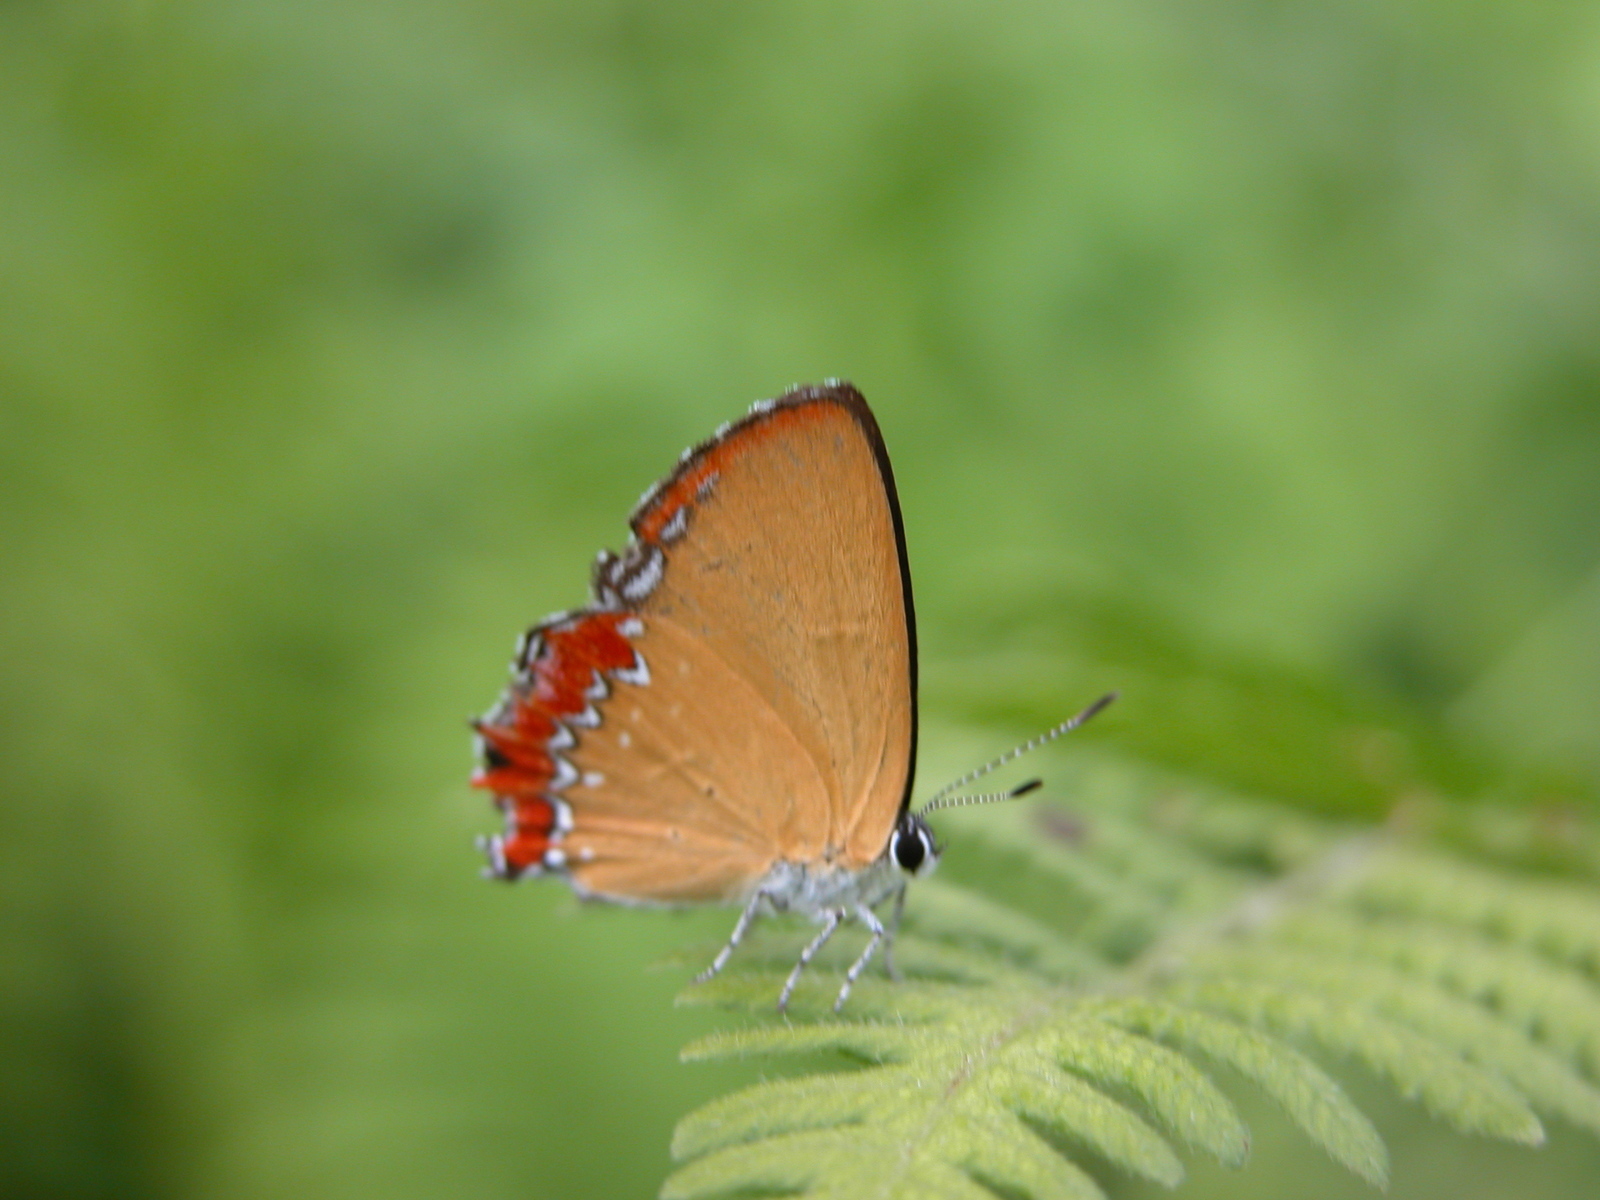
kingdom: Animalia
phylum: Arthropoda
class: Insecta
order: Lepidoptera
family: Lycaenidae
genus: Heliophorus
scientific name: Heliophorus epicles
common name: Purple sapphire
